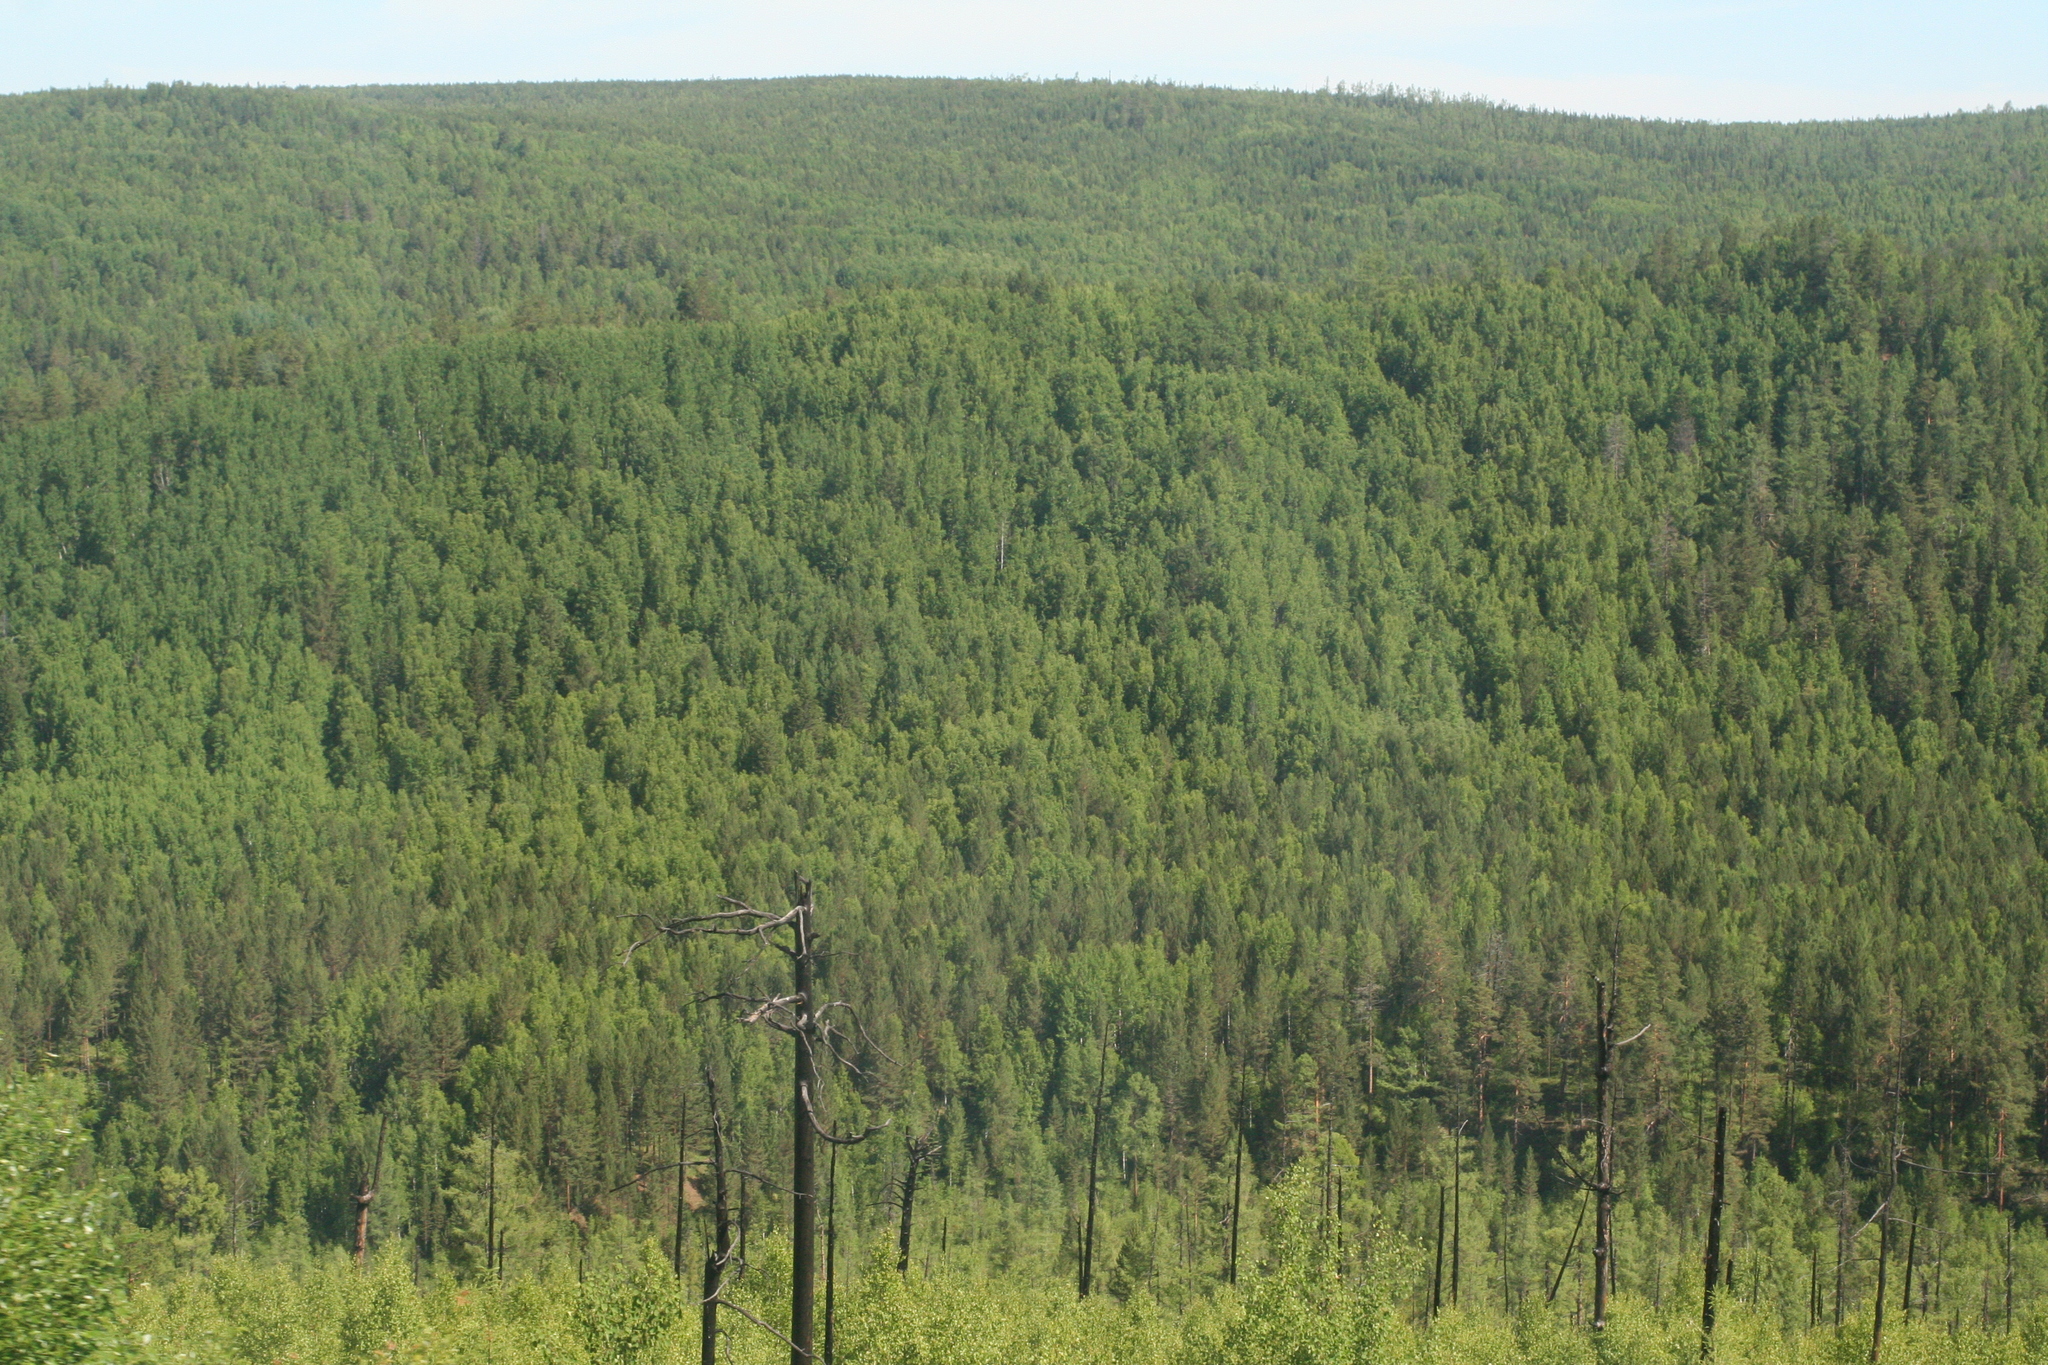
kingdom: Plantae
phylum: Tracheophyta
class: Pinopsida
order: Pinales
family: Pinaceae
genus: Pinus
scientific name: Pinus sylvestris
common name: Scots pine
